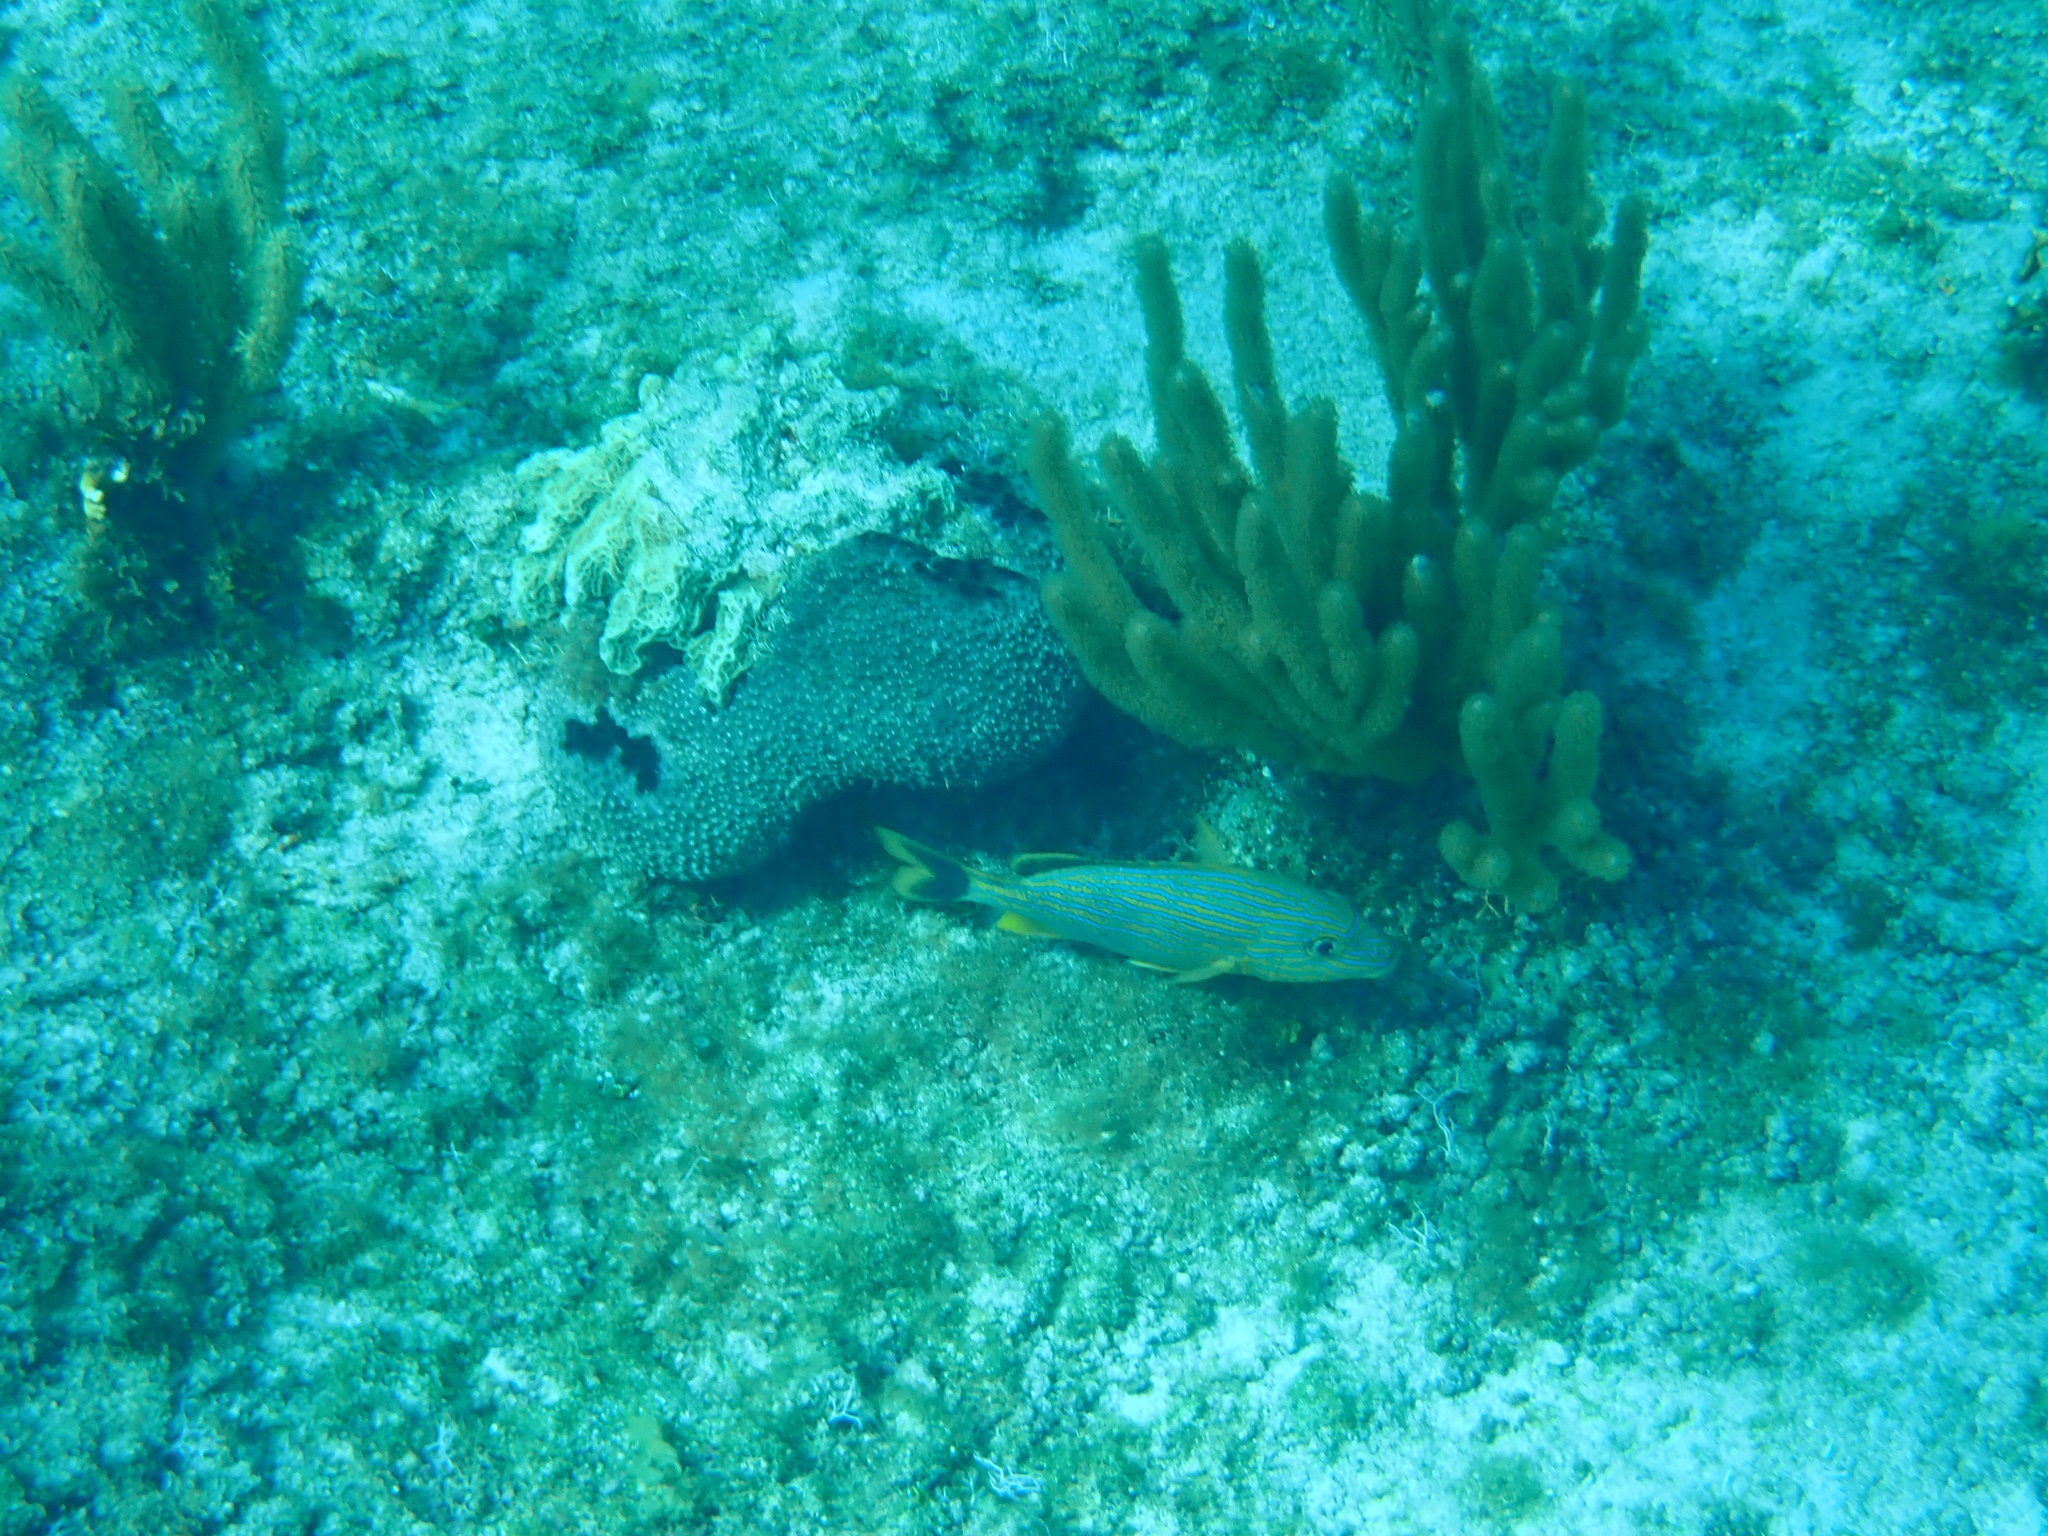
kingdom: Animalia
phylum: Chordata
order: Perciformes
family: Haemulidae
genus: Haemulon
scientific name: Haemulon sciurus
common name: Bluestriped grunt
